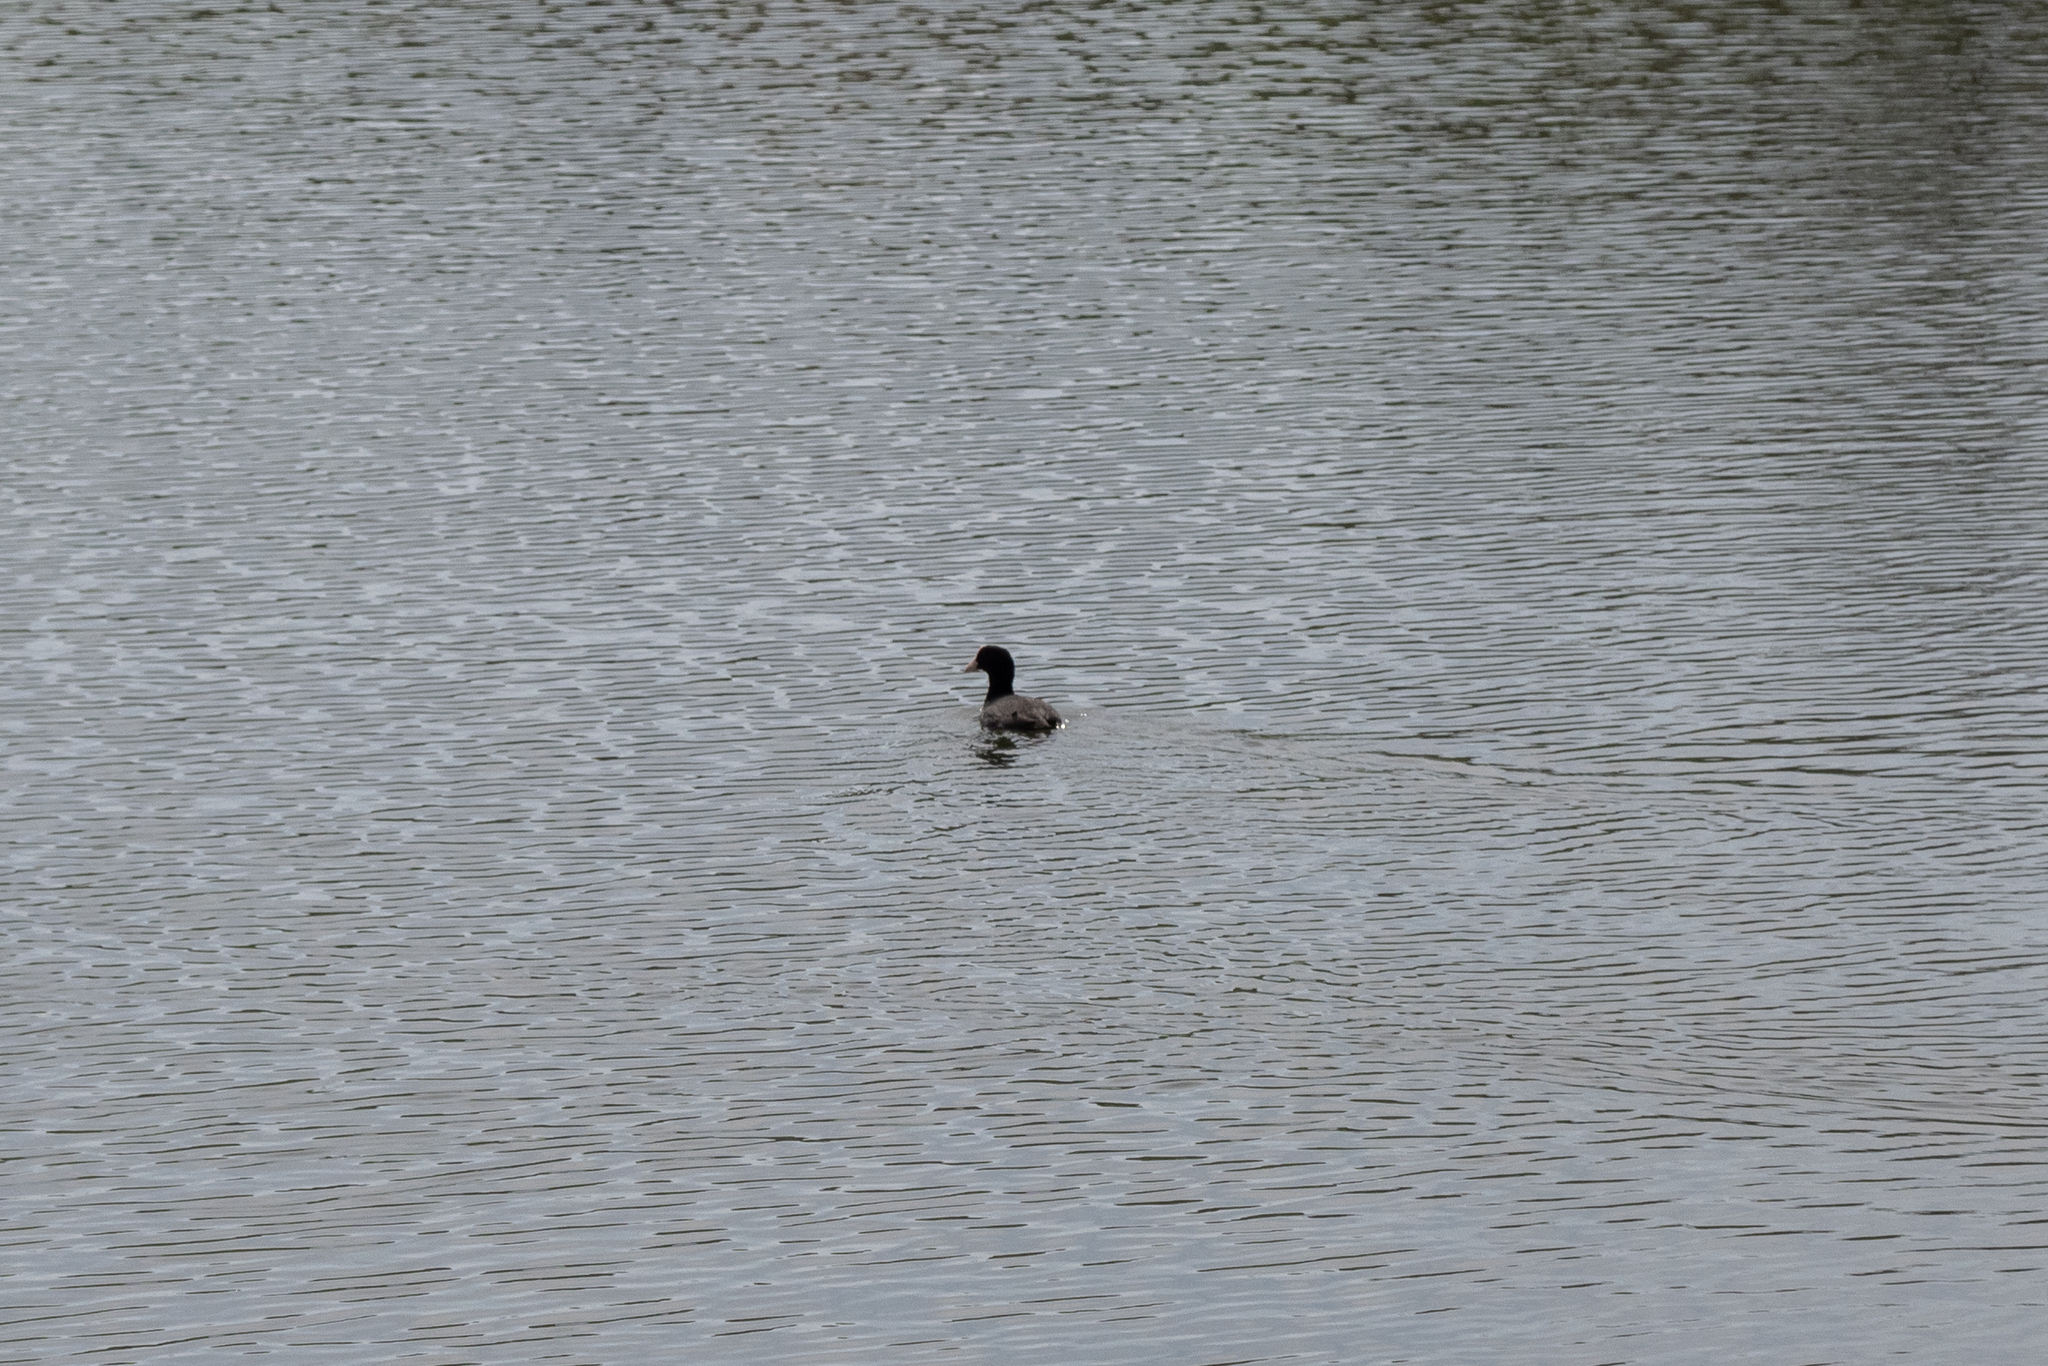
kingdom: Animalia
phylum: Chordata
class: Aves
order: Gruiformes
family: Rallidae
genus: Fulica
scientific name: Fulica atra
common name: Eurasian coot
